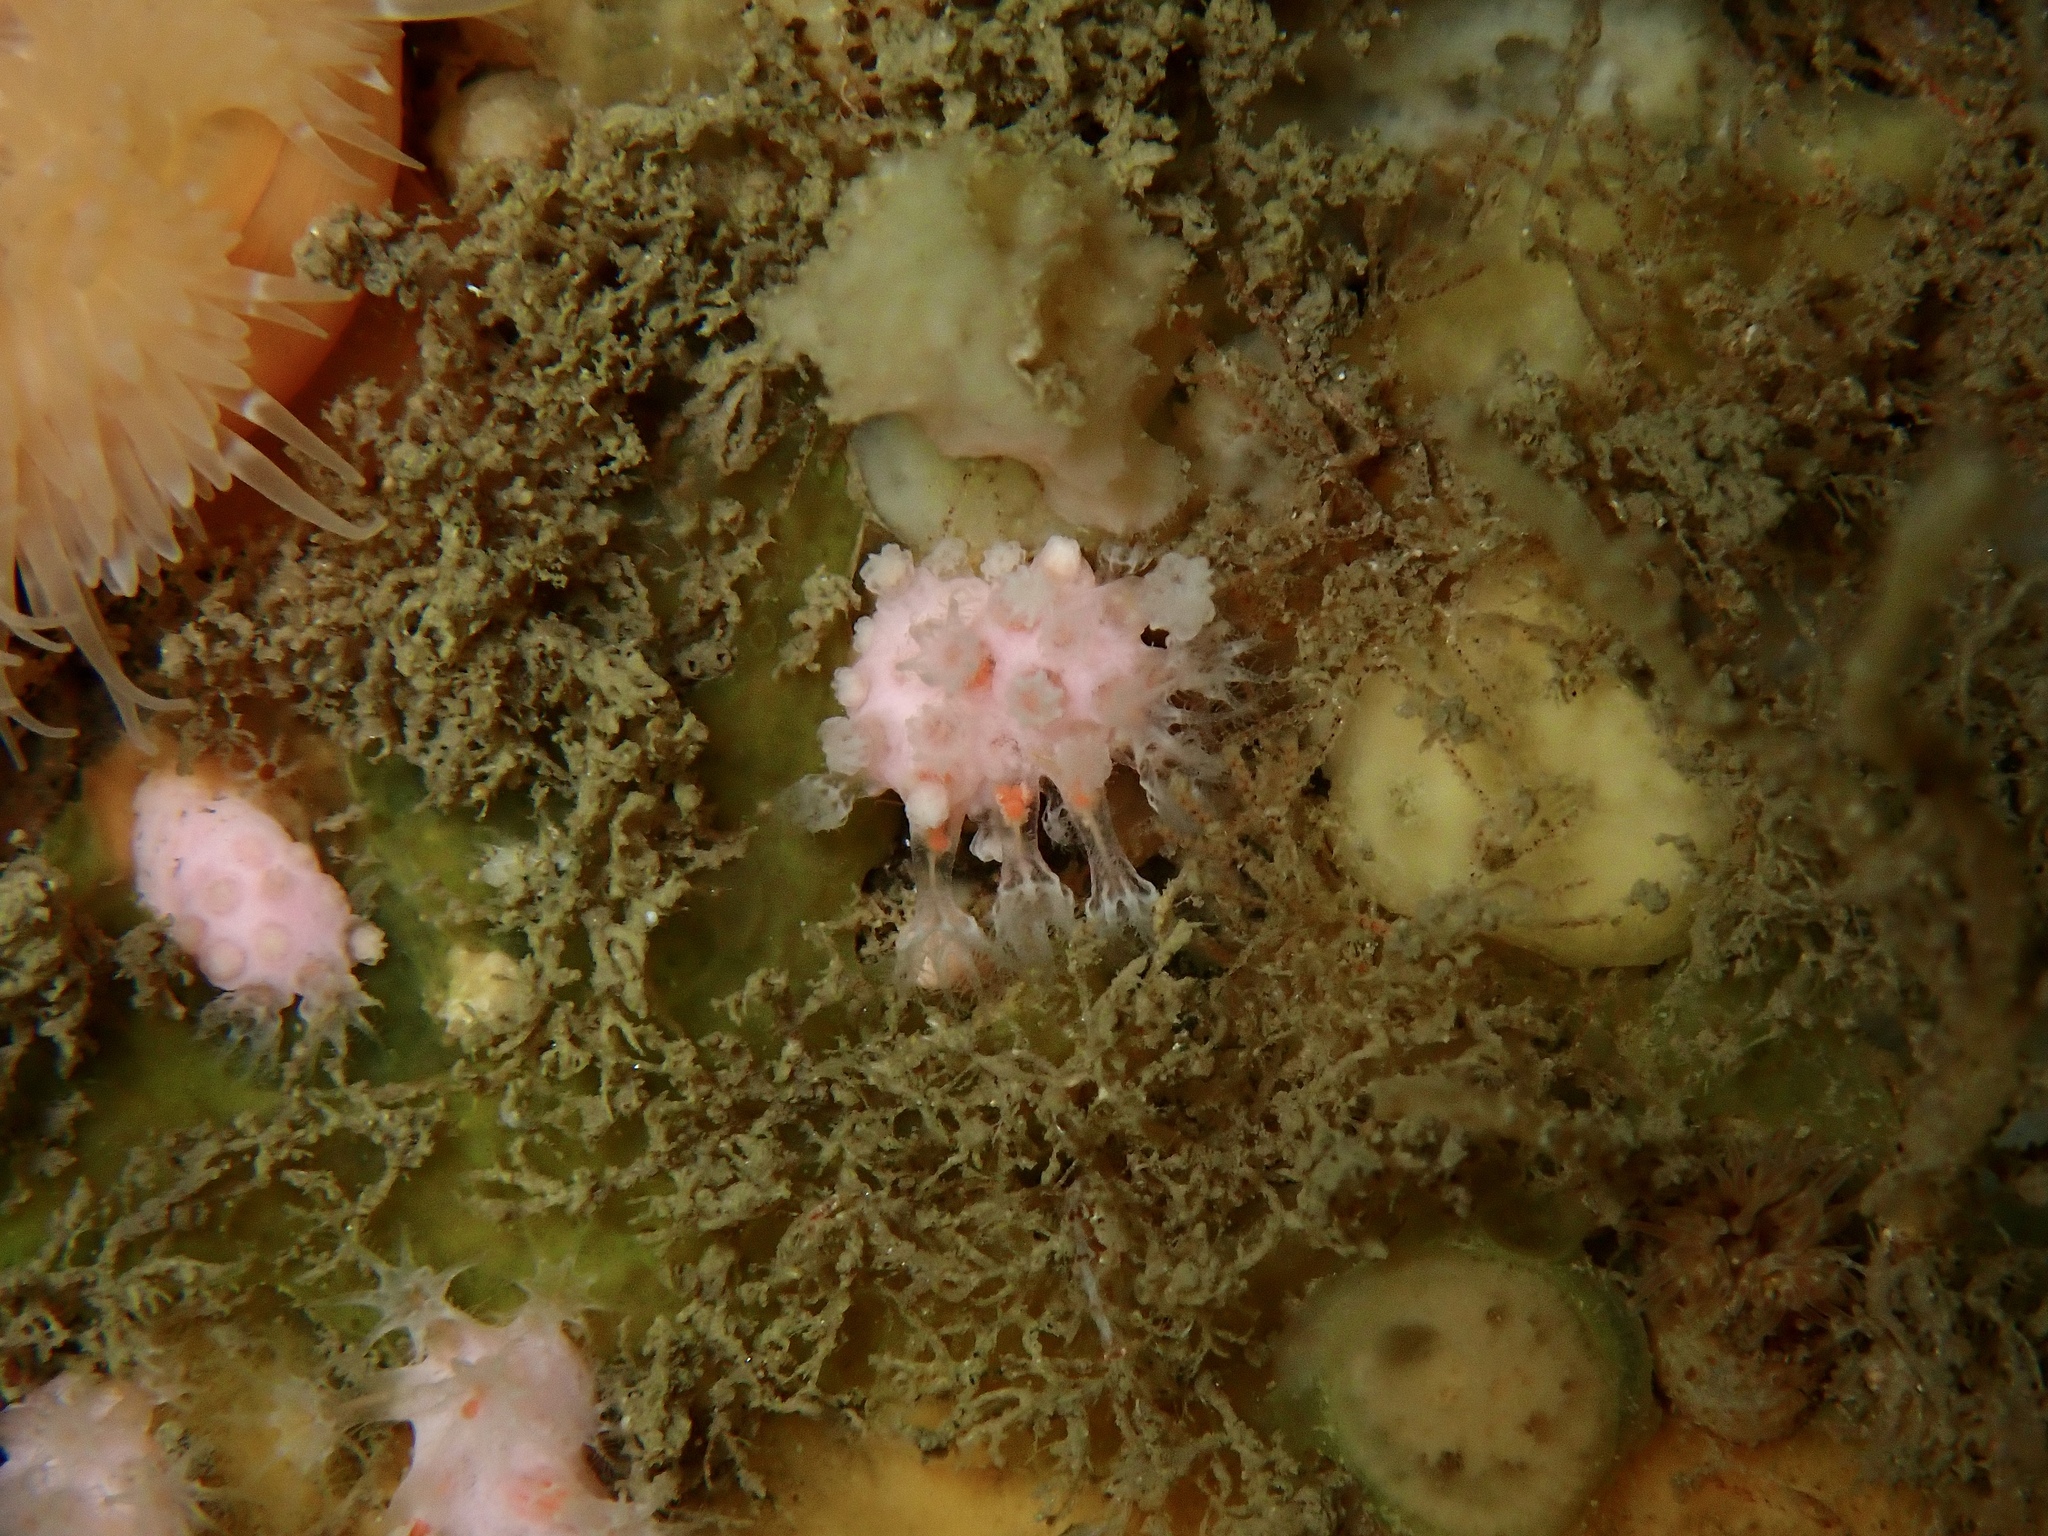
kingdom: Animalia
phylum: Cnidaria
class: Anthozoa
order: Malacalcyonacea
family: Alcyoniidae
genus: Alcyonium
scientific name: Alcyonium hibernicum
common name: Pink sea fingers
